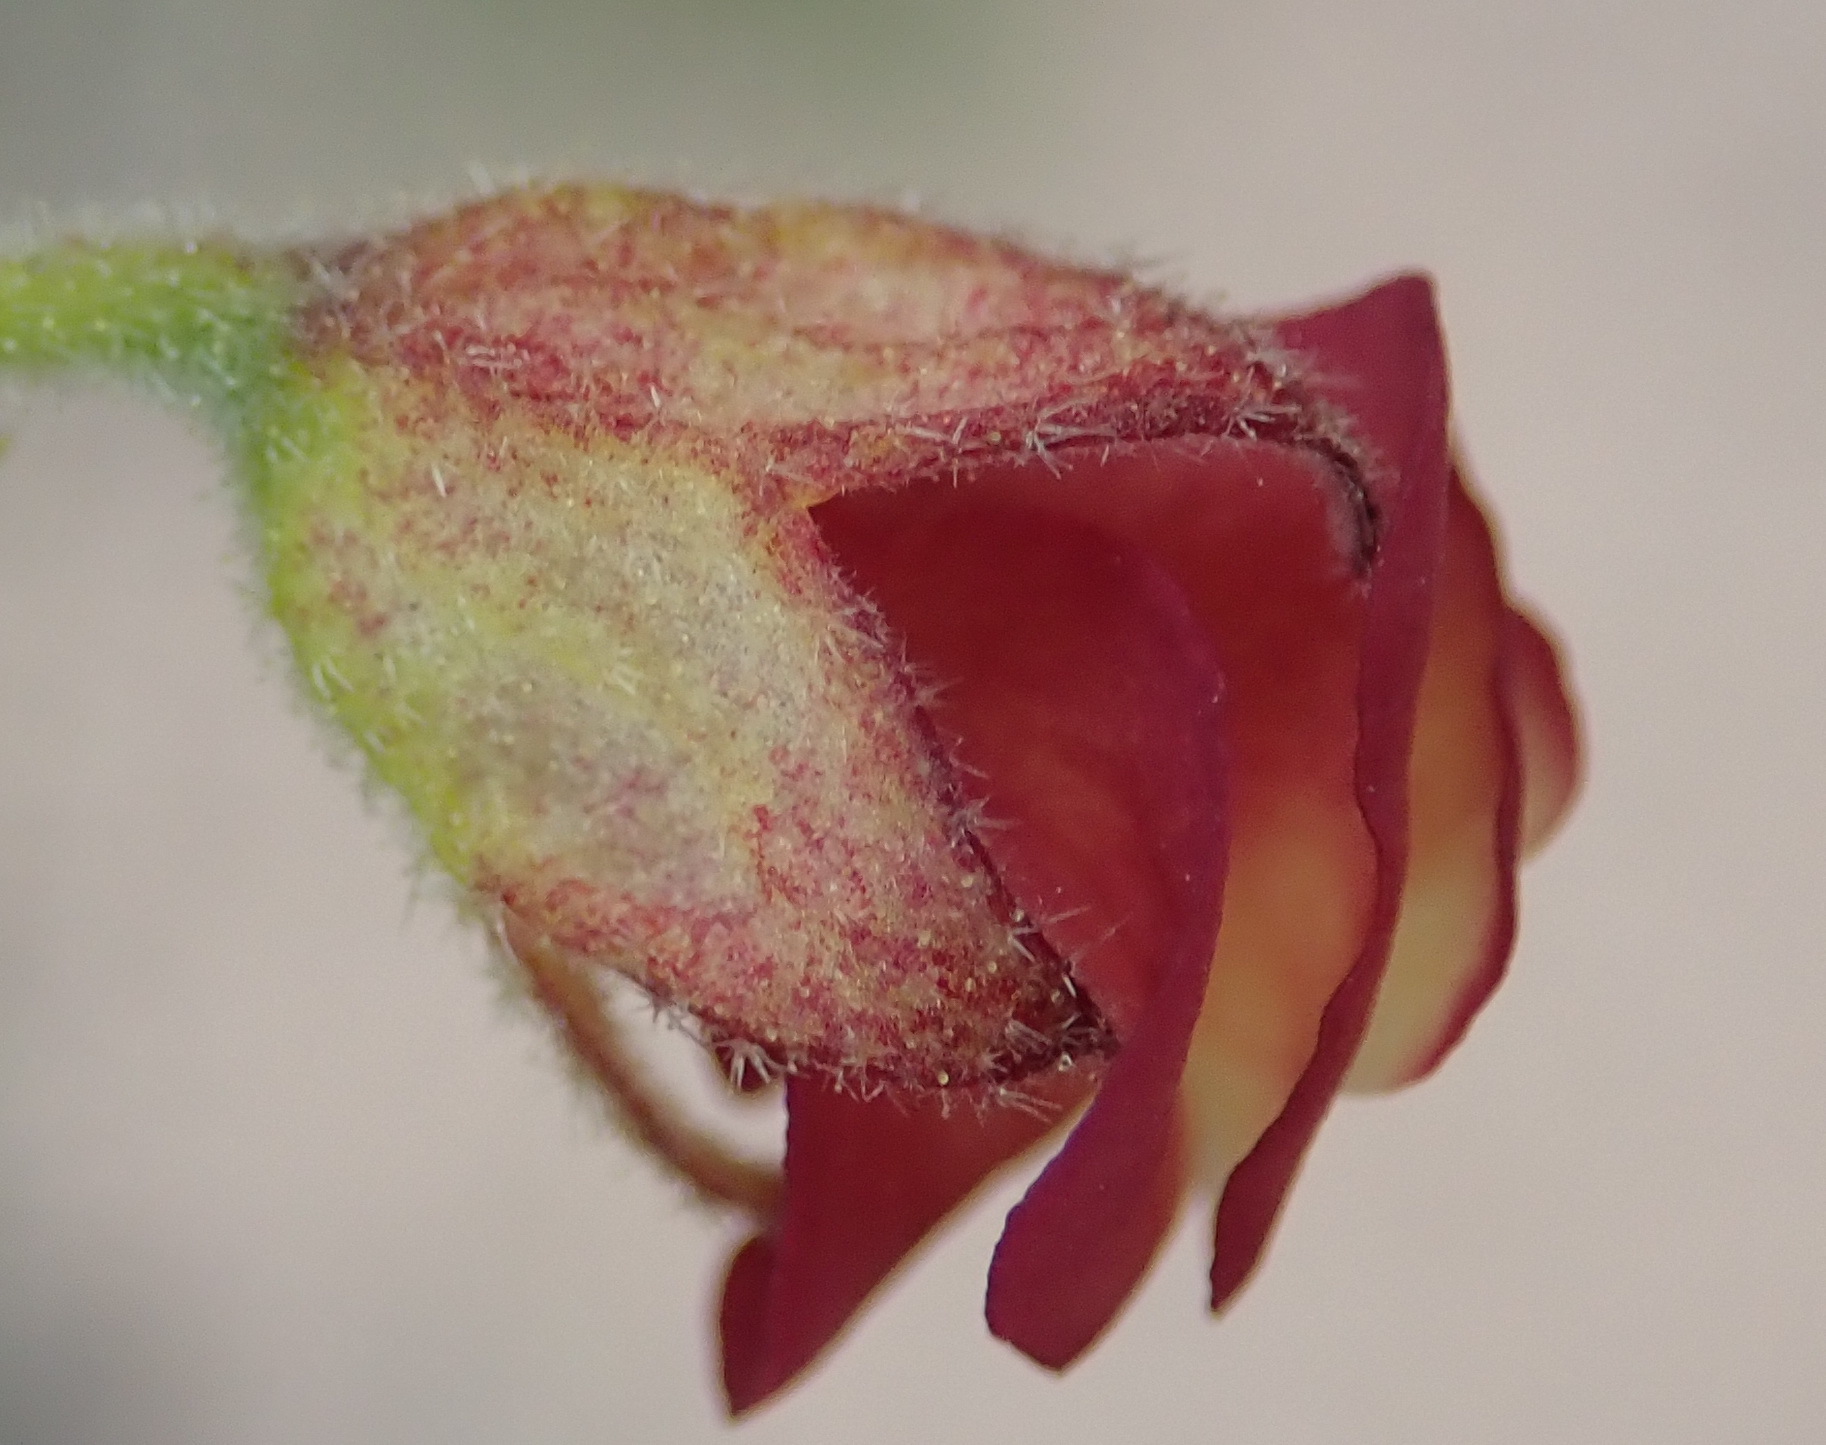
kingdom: Plantae
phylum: Tracheophyta
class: Magnoliopsida
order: Malvales
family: Malvaceae
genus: Hermannia
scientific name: Hermannia flammula
